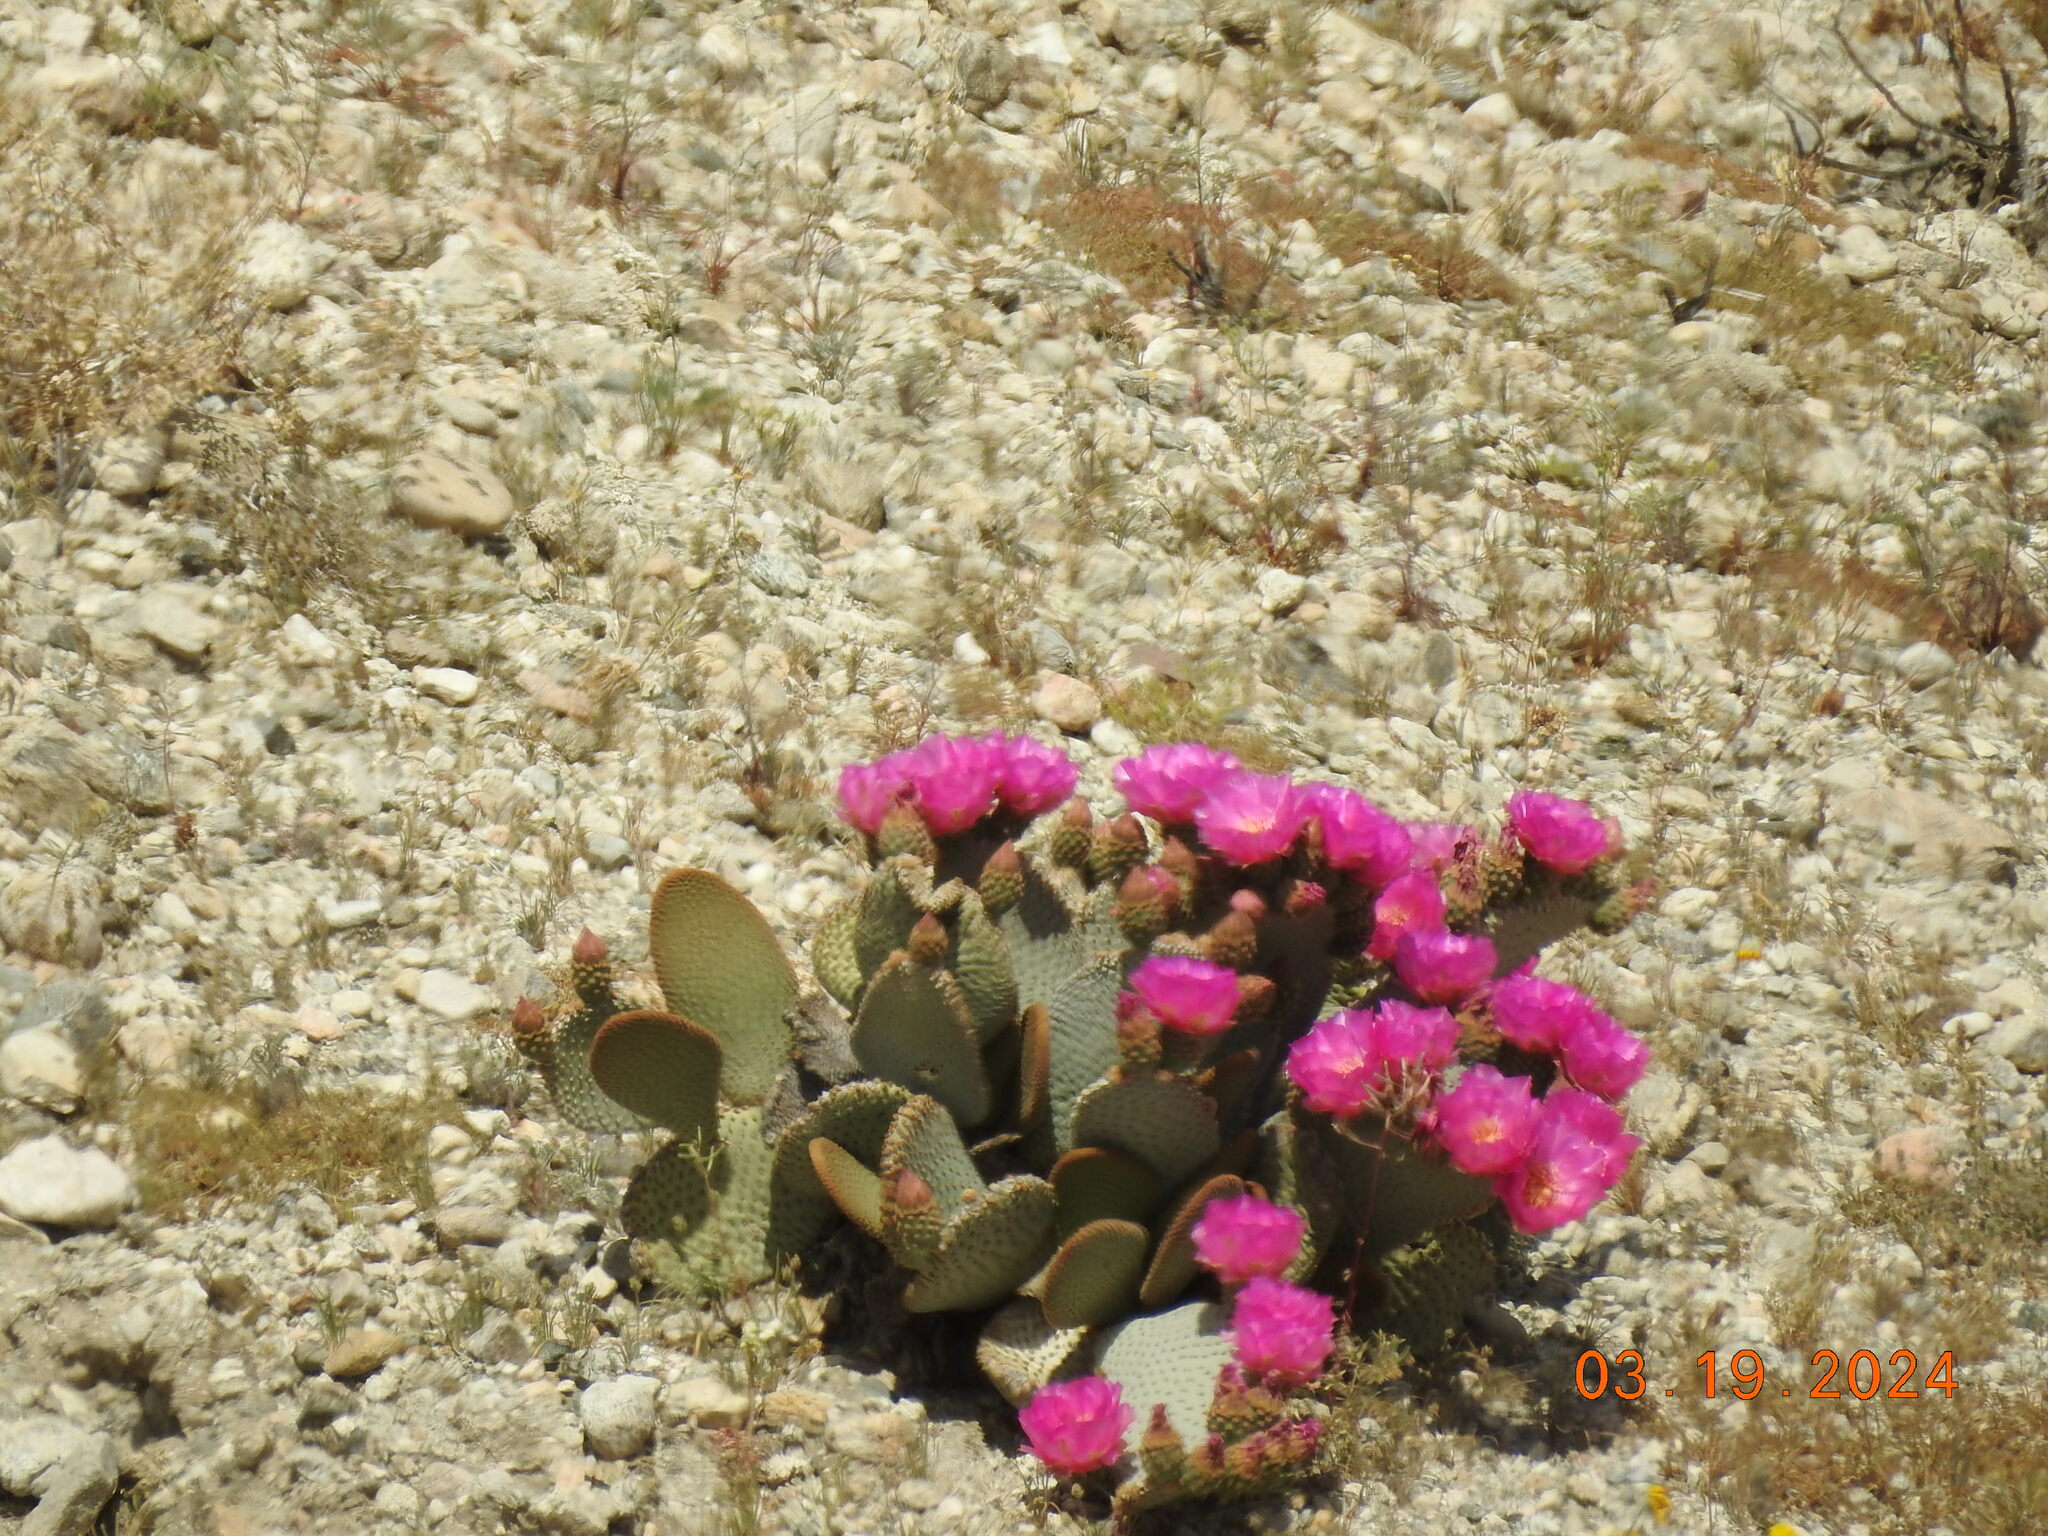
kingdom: Plantae
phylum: Tracheophyta
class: Magnoliopsida
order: Caryophyllales
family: Cactaceae
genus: Opuntia
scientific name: Opuntia basilaris
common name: Beavertail prickly-pear
